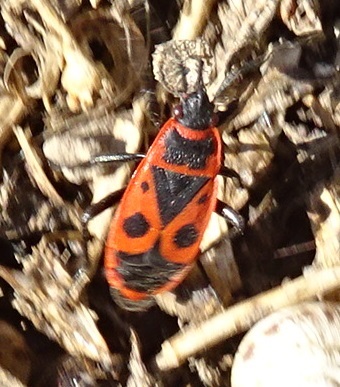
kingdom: Animalia
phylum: Arthropoda
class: Insecta
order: Hemiptera
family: Pyrrhocoridae
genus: Pyrrhocoris
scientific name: Pyrrhocoris apterus
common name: Firebug
